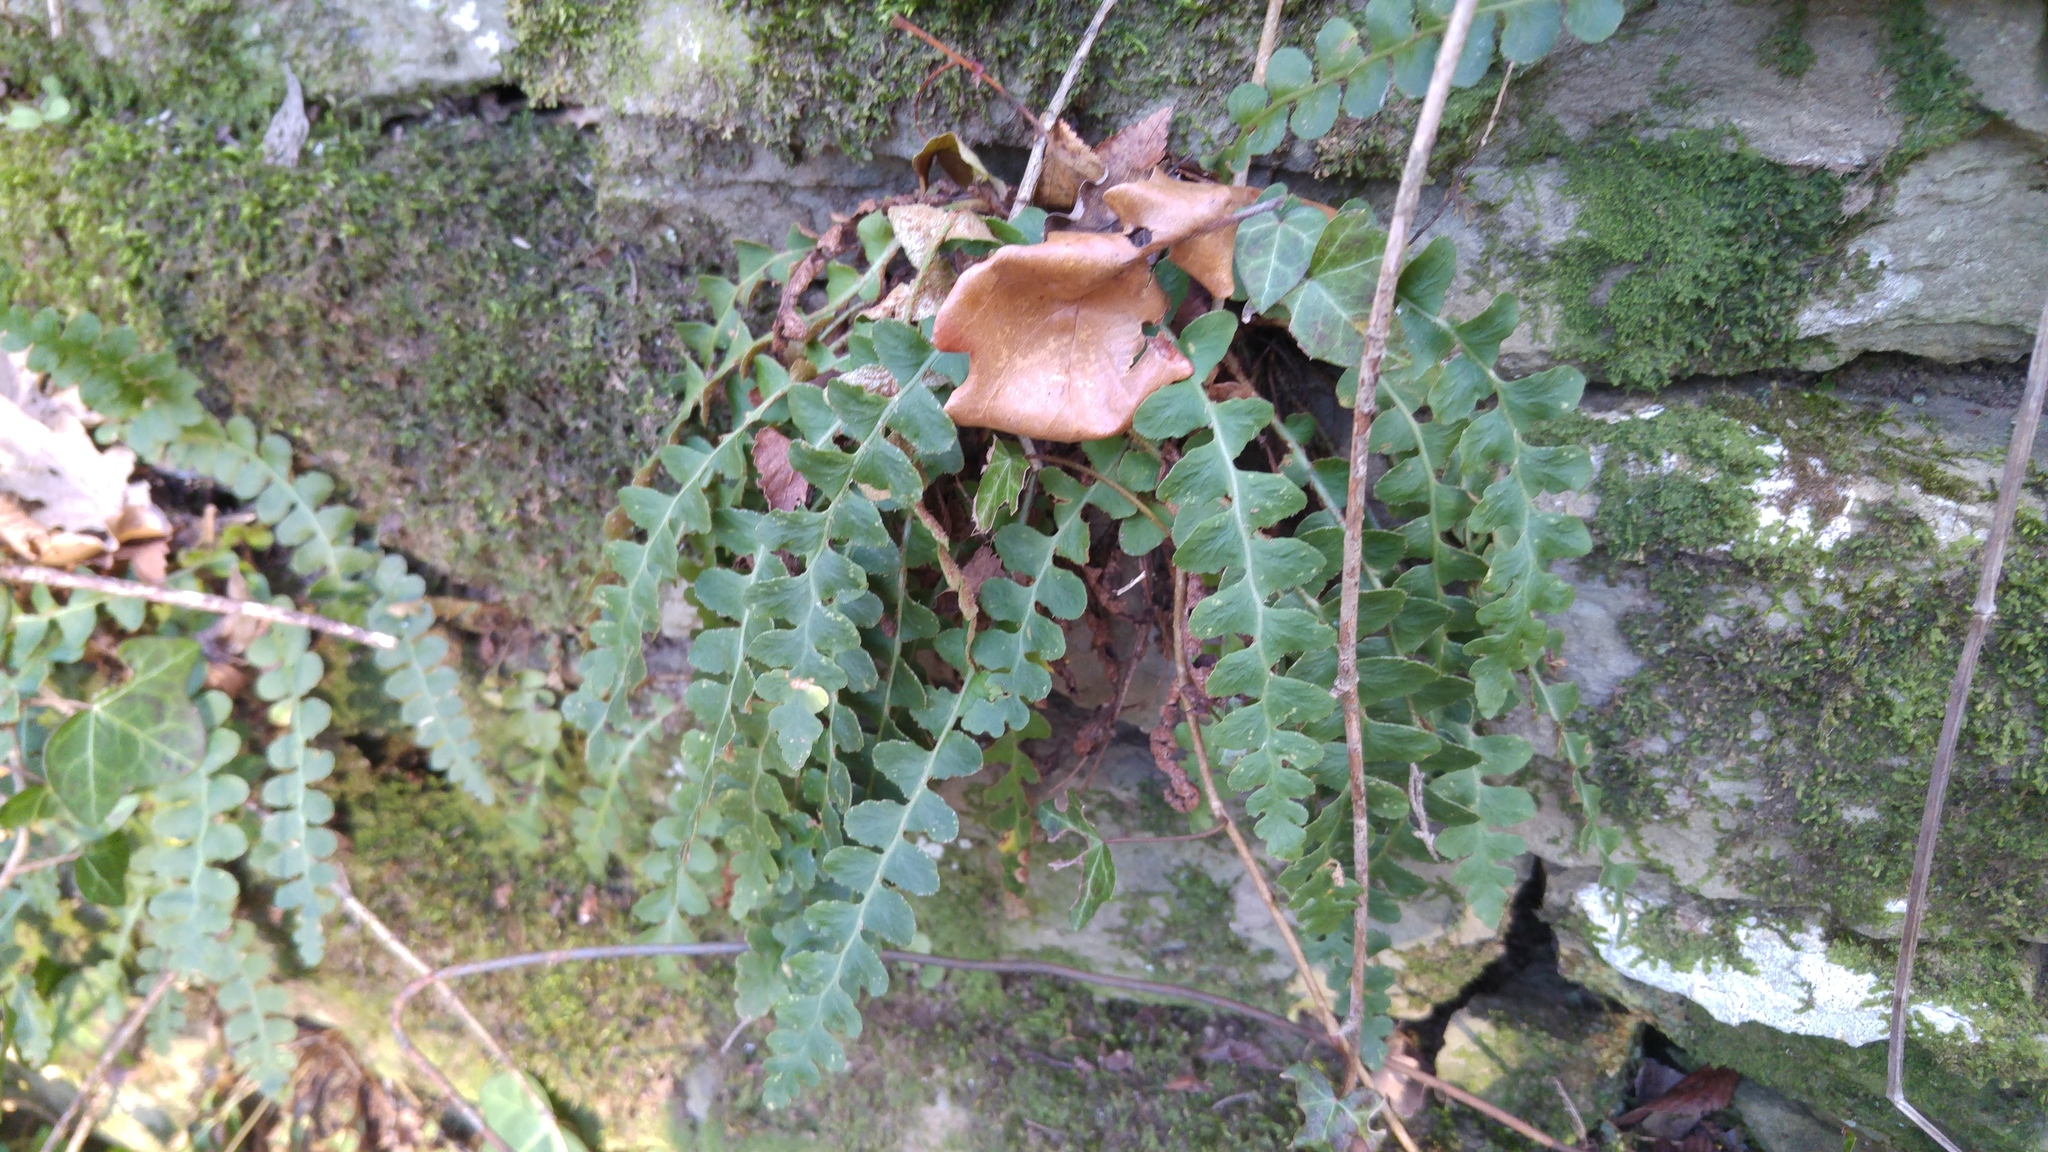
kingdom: Plantae
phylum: Tracheophyta
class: Polypodiopsida
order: Polypodiales
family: Aspleniaceae
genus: Asplenium
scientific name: Asplenium ceterach
